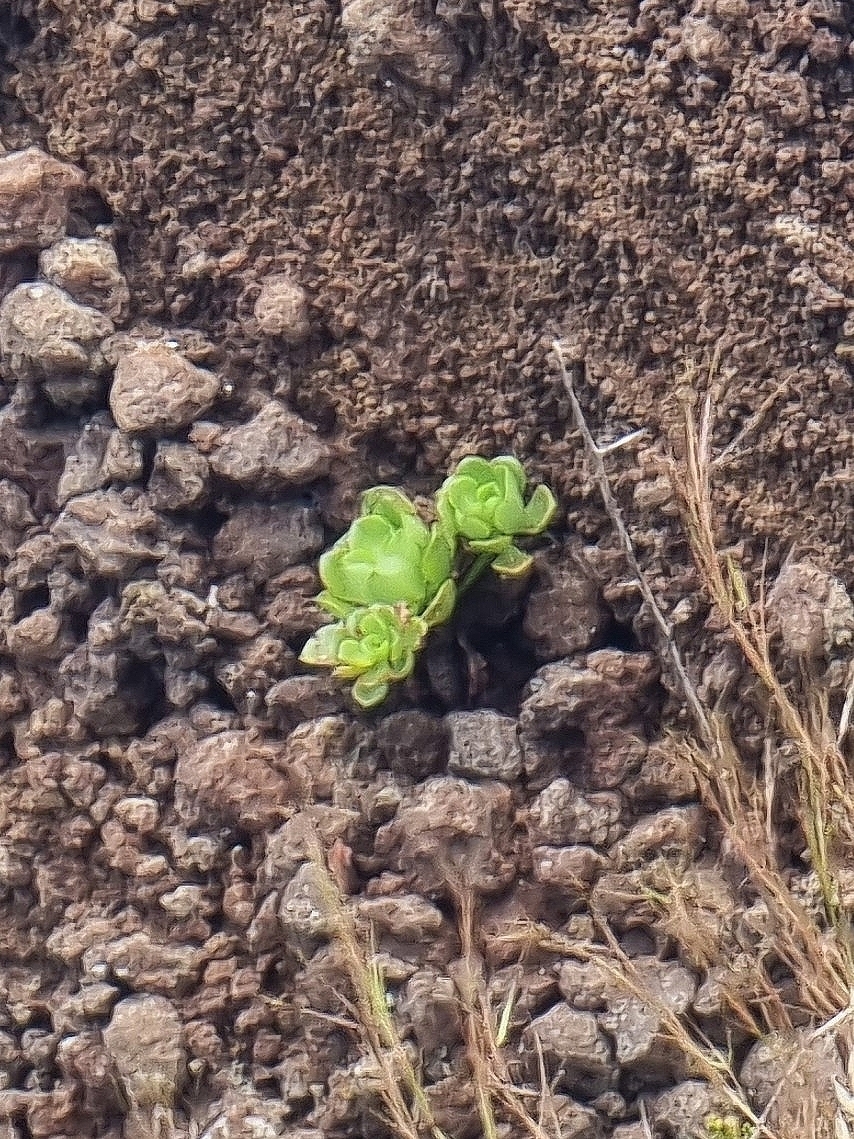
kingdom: Plantae
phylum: Tracheophyta
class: Magnoliopsida
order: Saxifragales
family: Crassulaceae
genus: Aeonium
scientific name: Aeonium glutinosum
